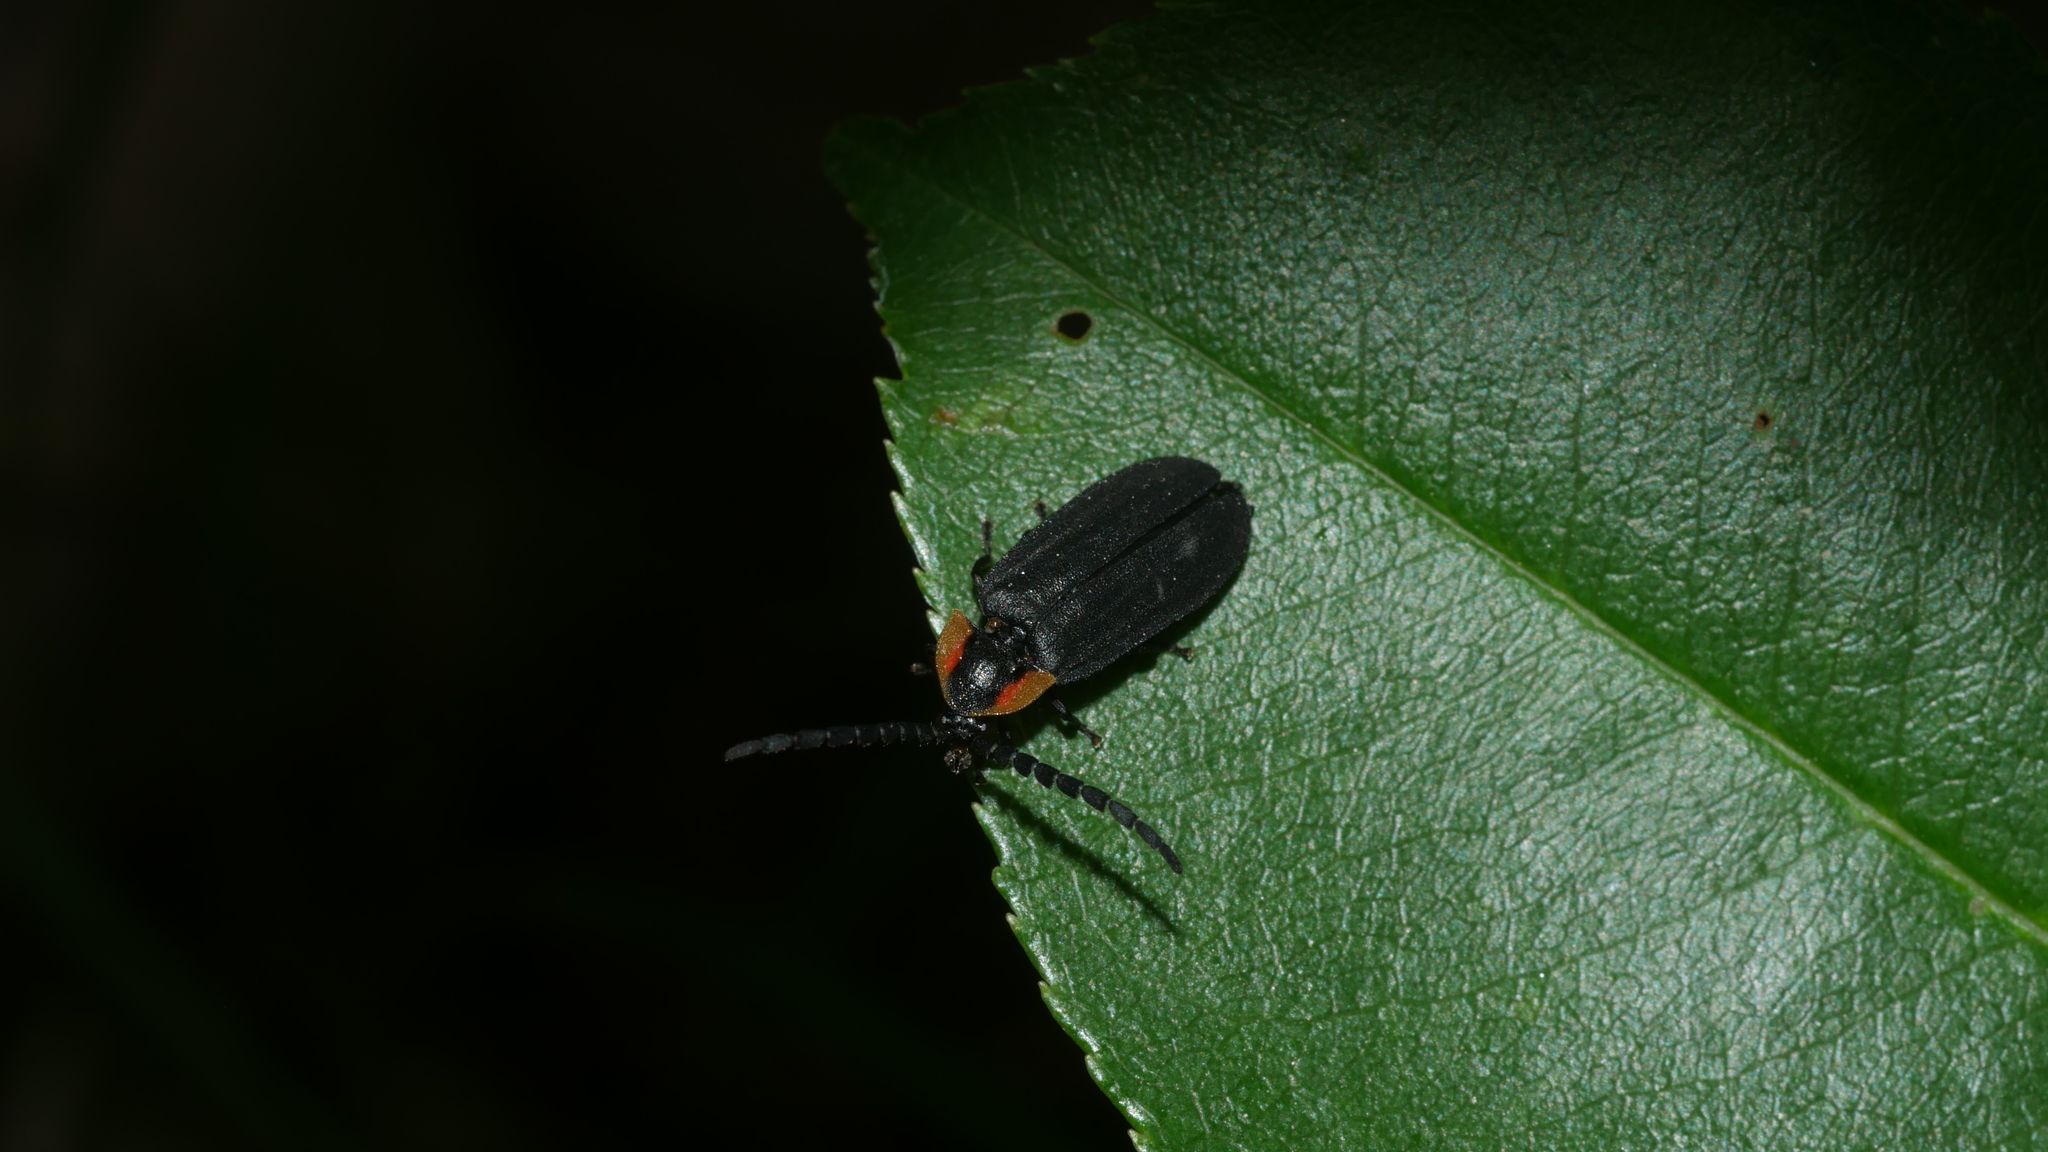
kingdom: Animalia
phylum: Arthropoda
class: Insecta
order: Coleoptera
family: Lampyridae
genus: Lucidota
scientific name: Lucidota atra
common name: Black firefly
